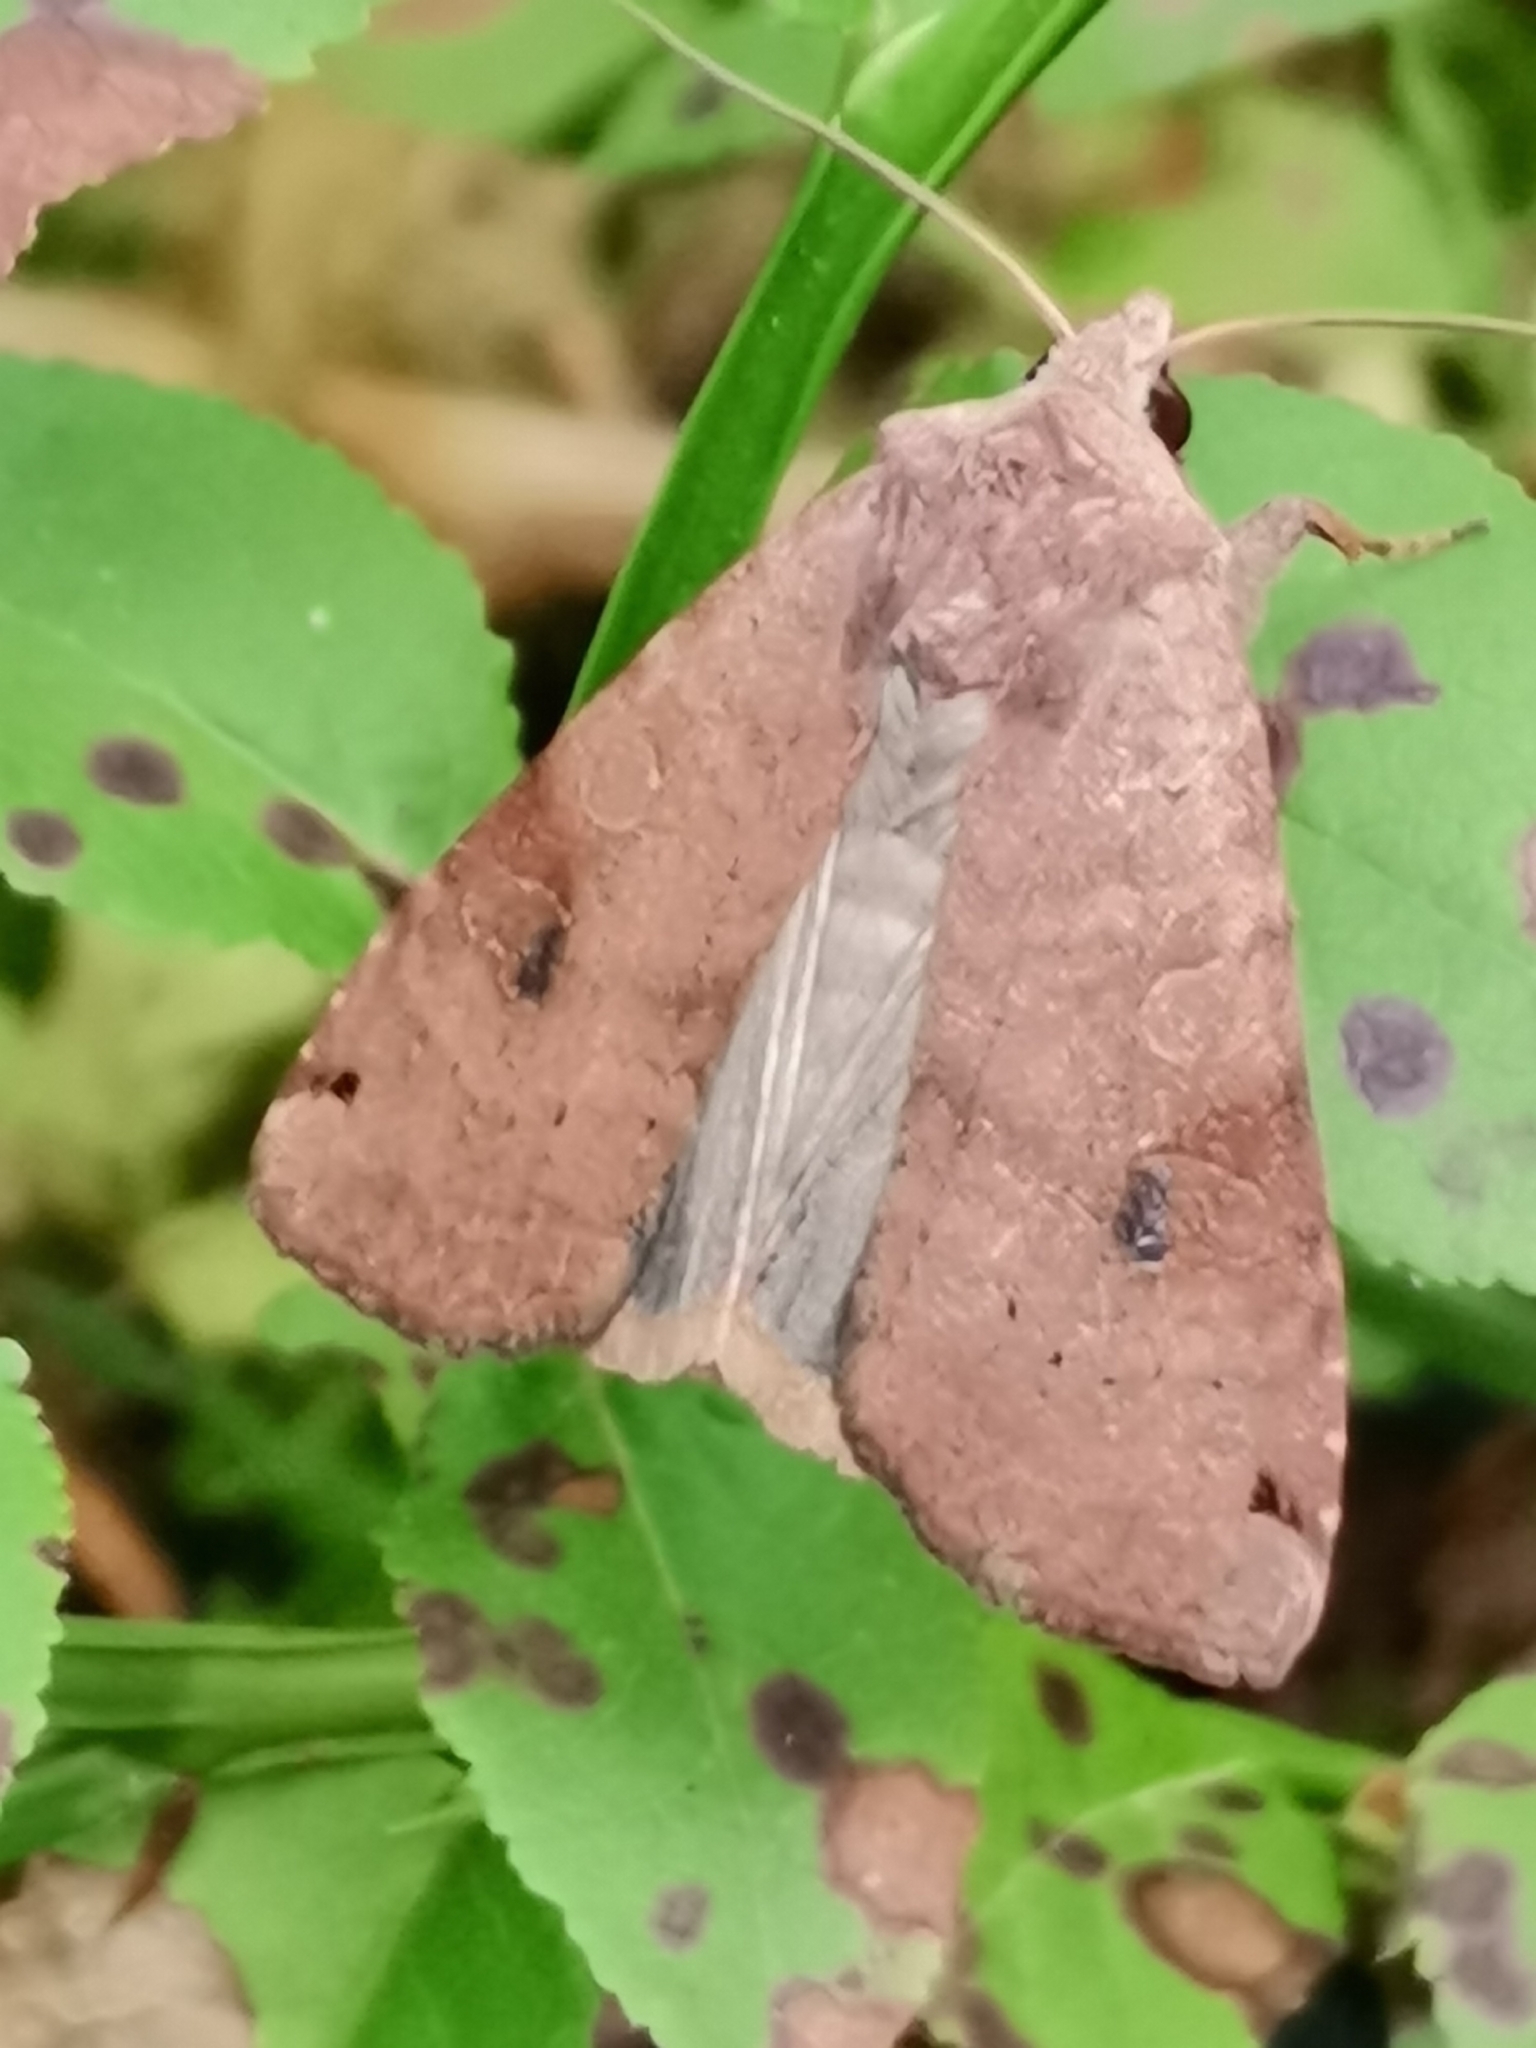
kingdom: Animalia
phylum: Arthropoda
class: Insecta
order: Lepidoptera
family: Noctuidae
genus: Xestia
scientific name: Xestia baja
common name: Dotted clay
